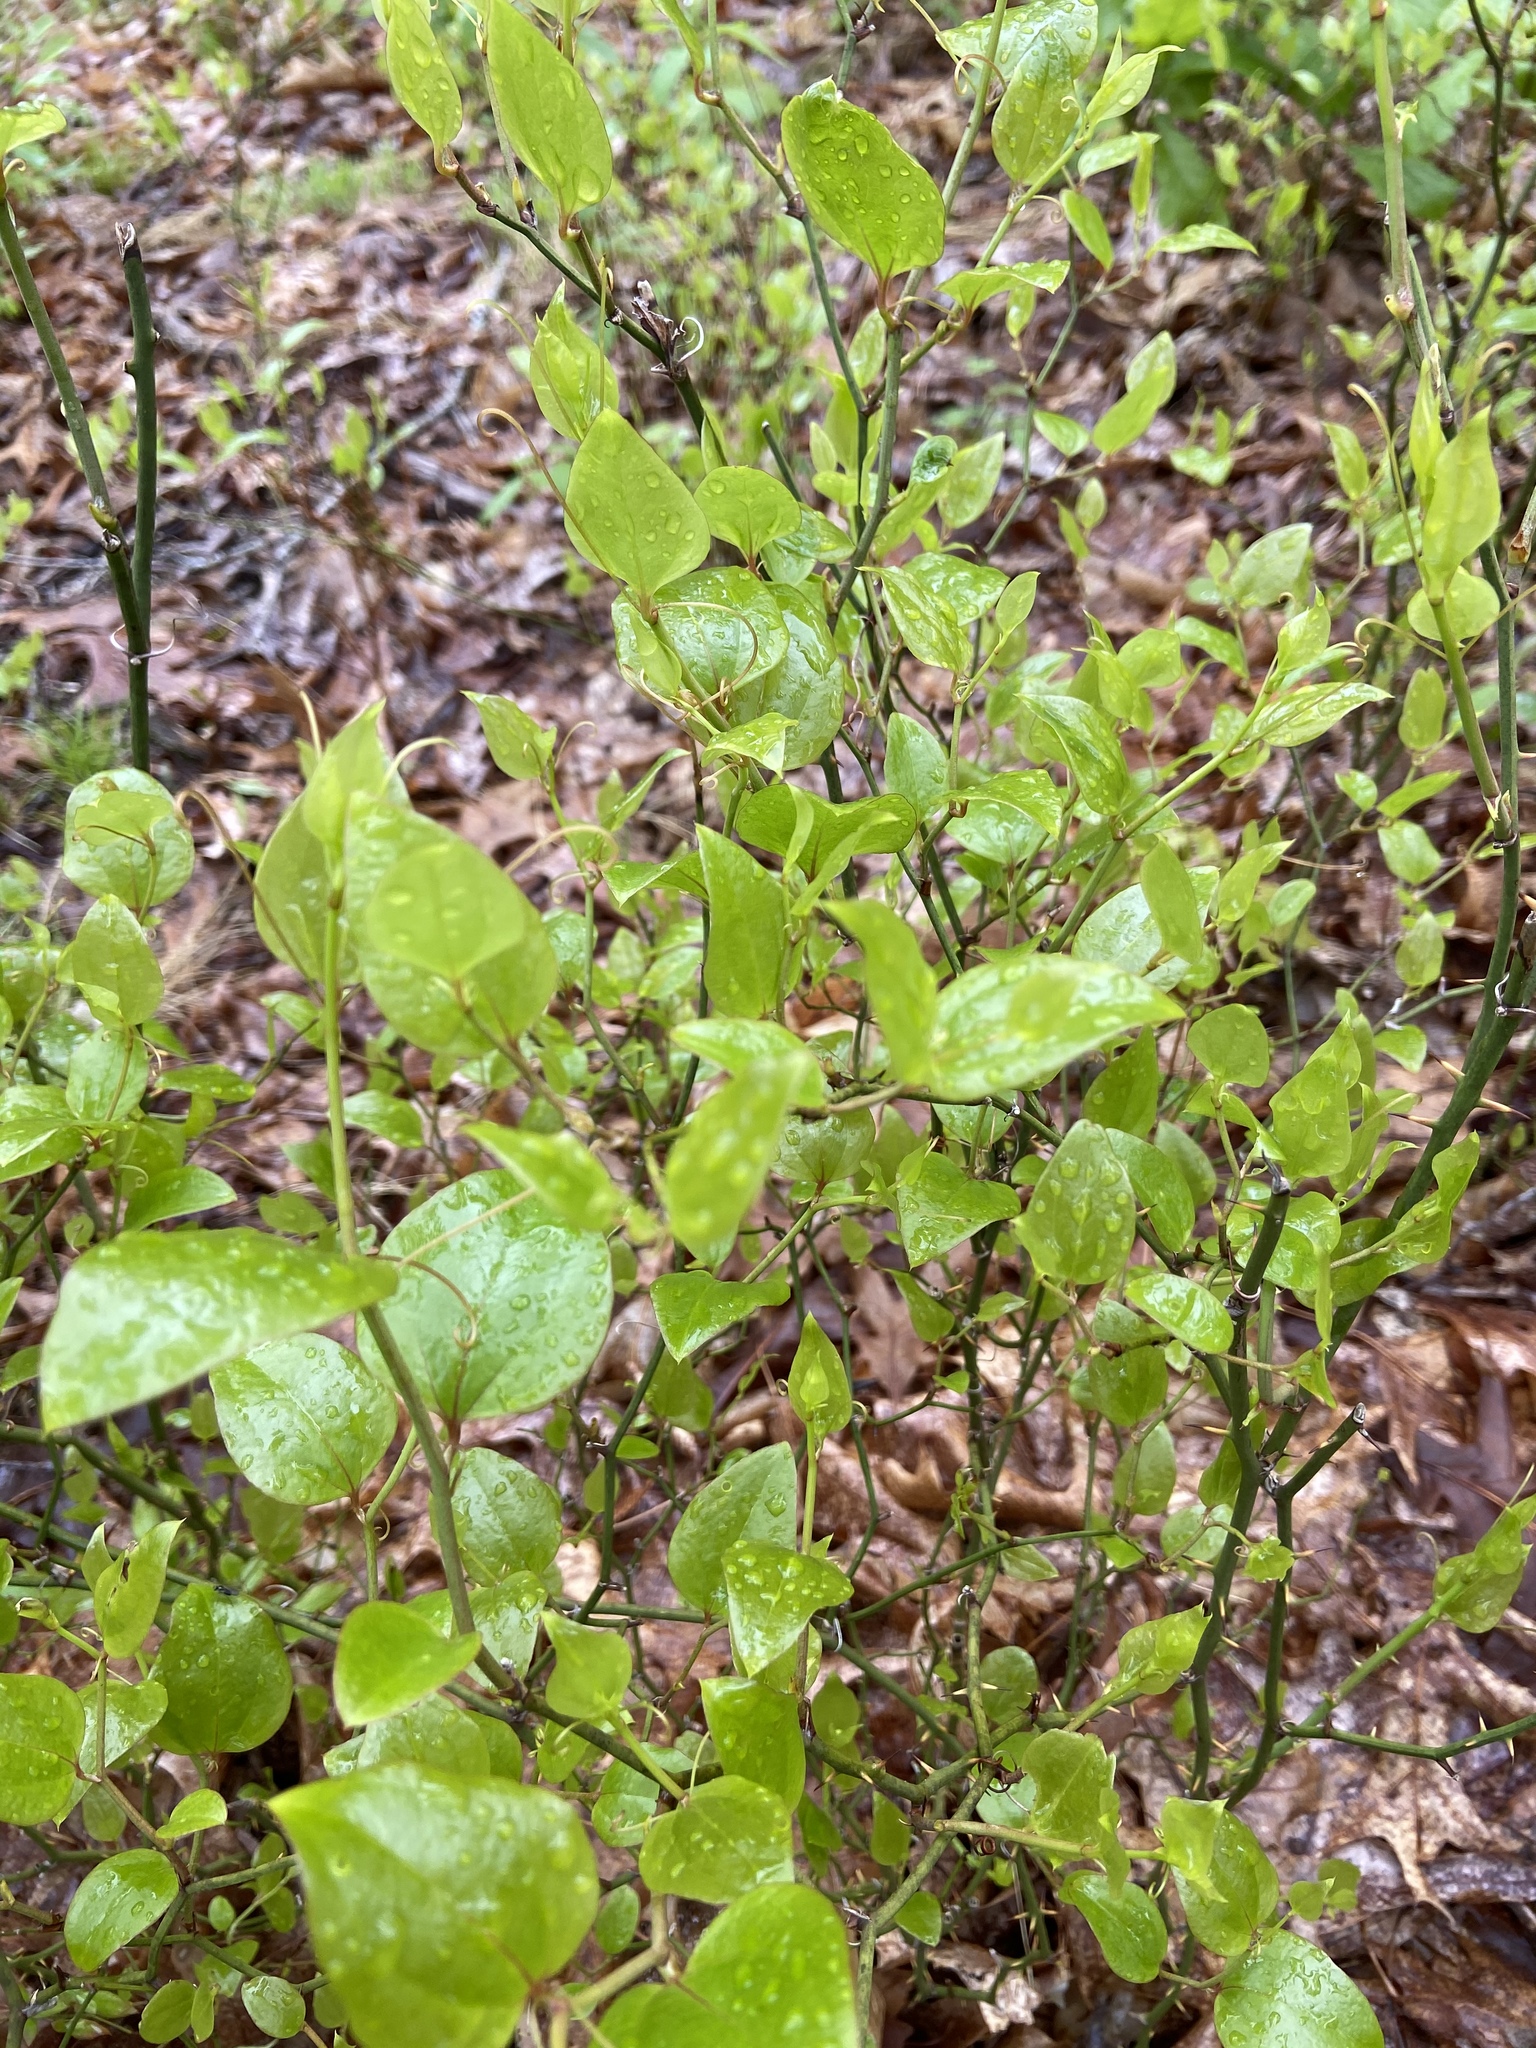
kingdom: Plantae
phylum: Tracheophyta
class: Liliopsida
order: Liliales
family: Smilacaceae
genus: Smilax
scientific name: Smilax rotundifolia
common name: Bullbriar
